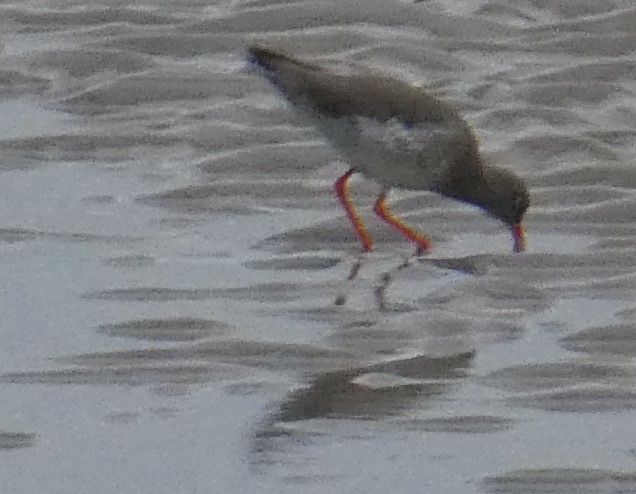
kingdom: Animalia
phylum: Chordata
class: Aves
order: Charadriiformes
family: Scolopacidae
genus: Tringa
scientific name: Tringa totanus
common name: Common redshank
